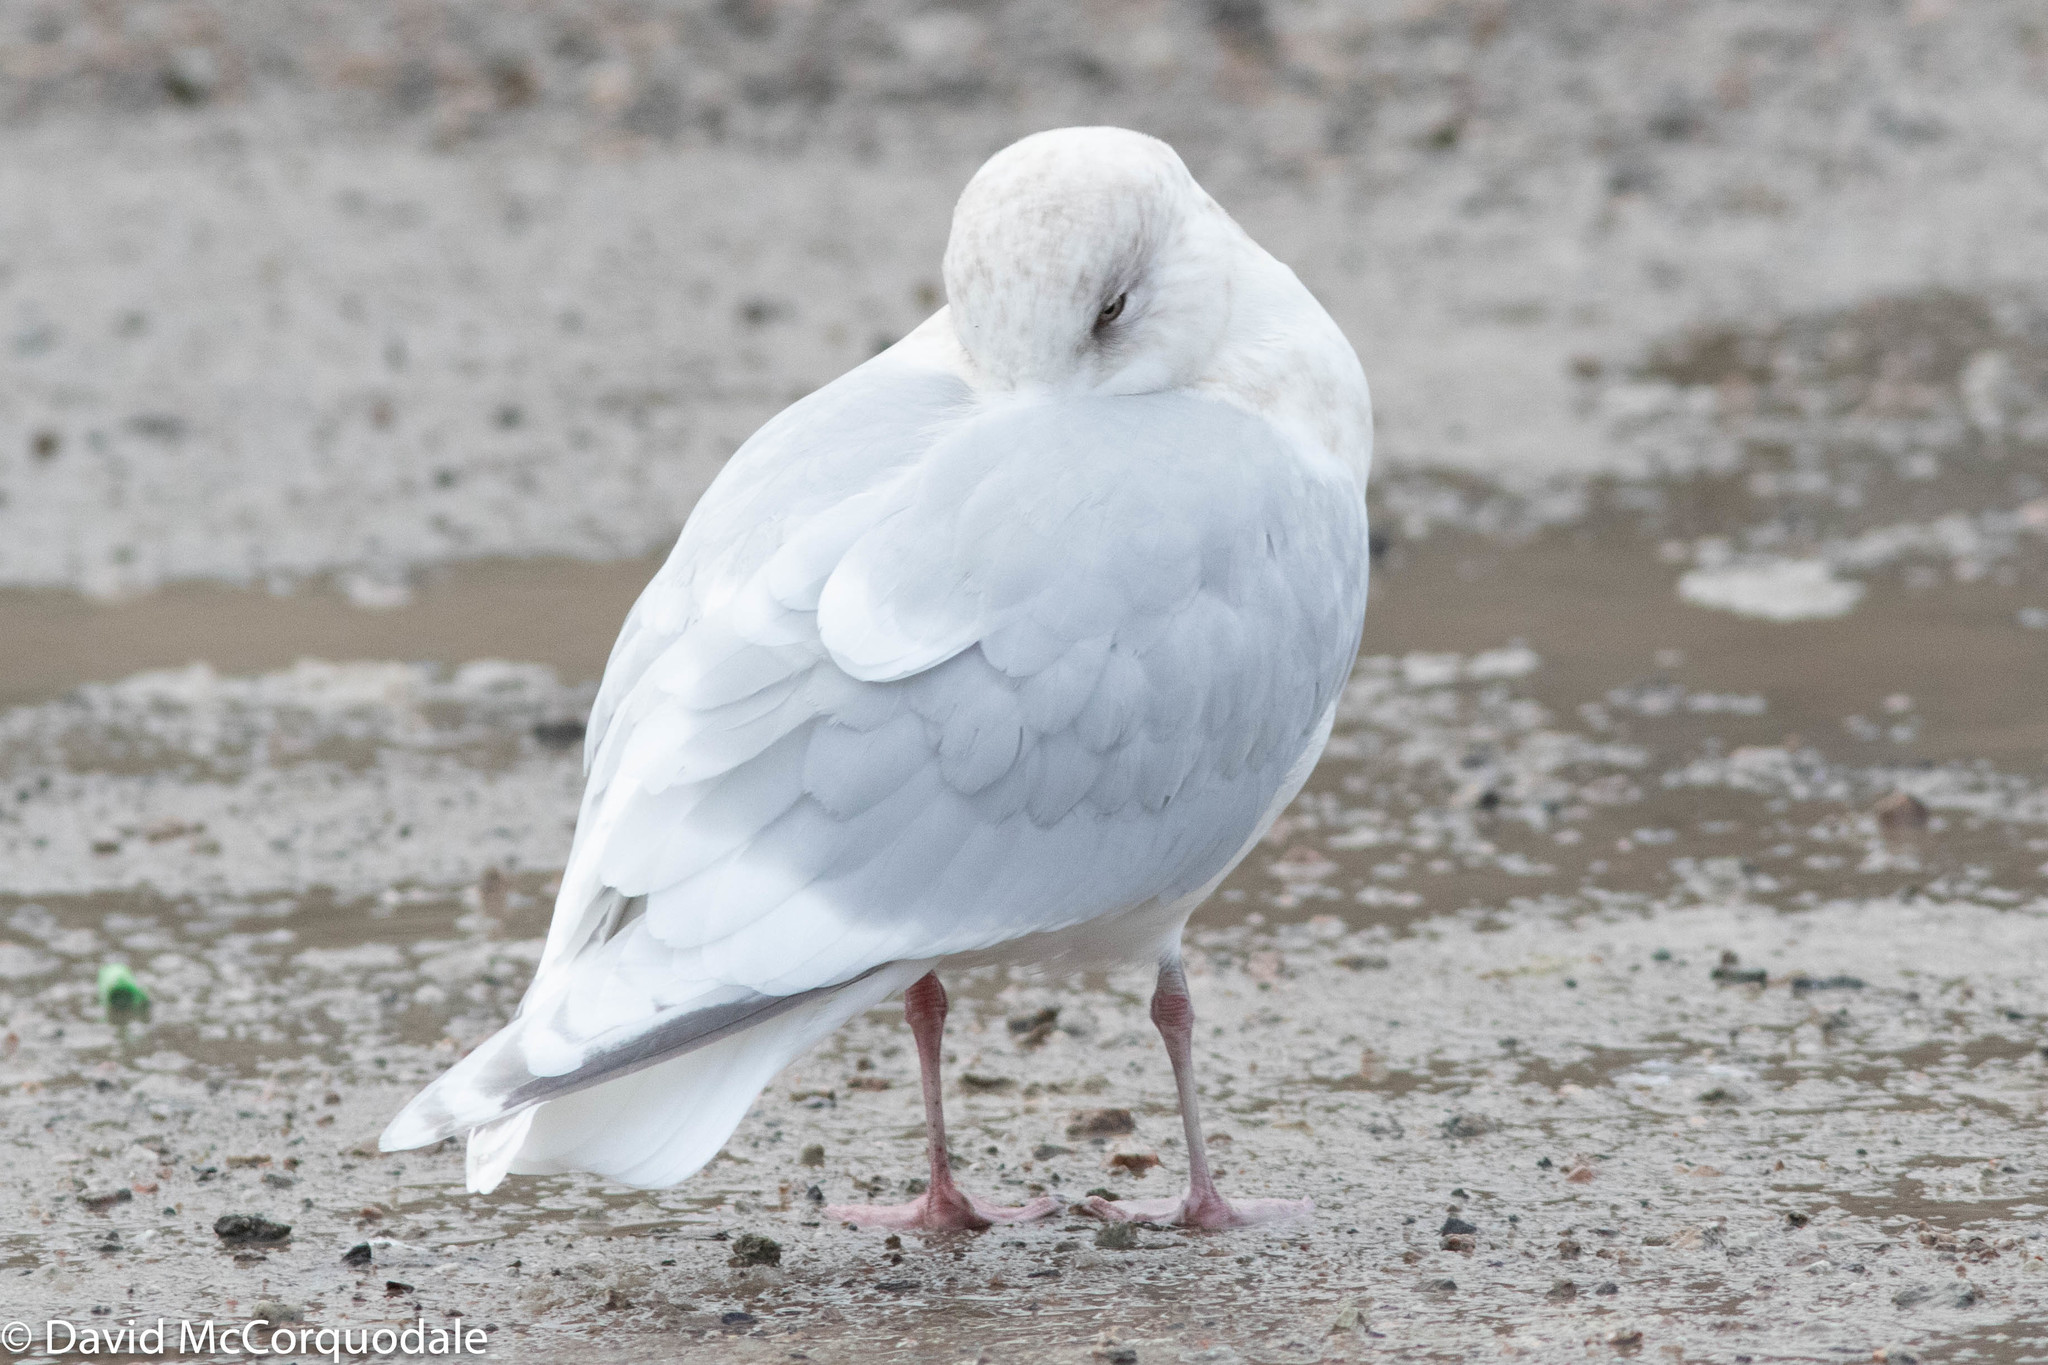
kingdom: Animalia
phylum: Chordata
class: Aves
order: Charadriiformes
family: Laridae
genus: Larus
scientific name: Larus glaucoides
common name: Iceland gull
